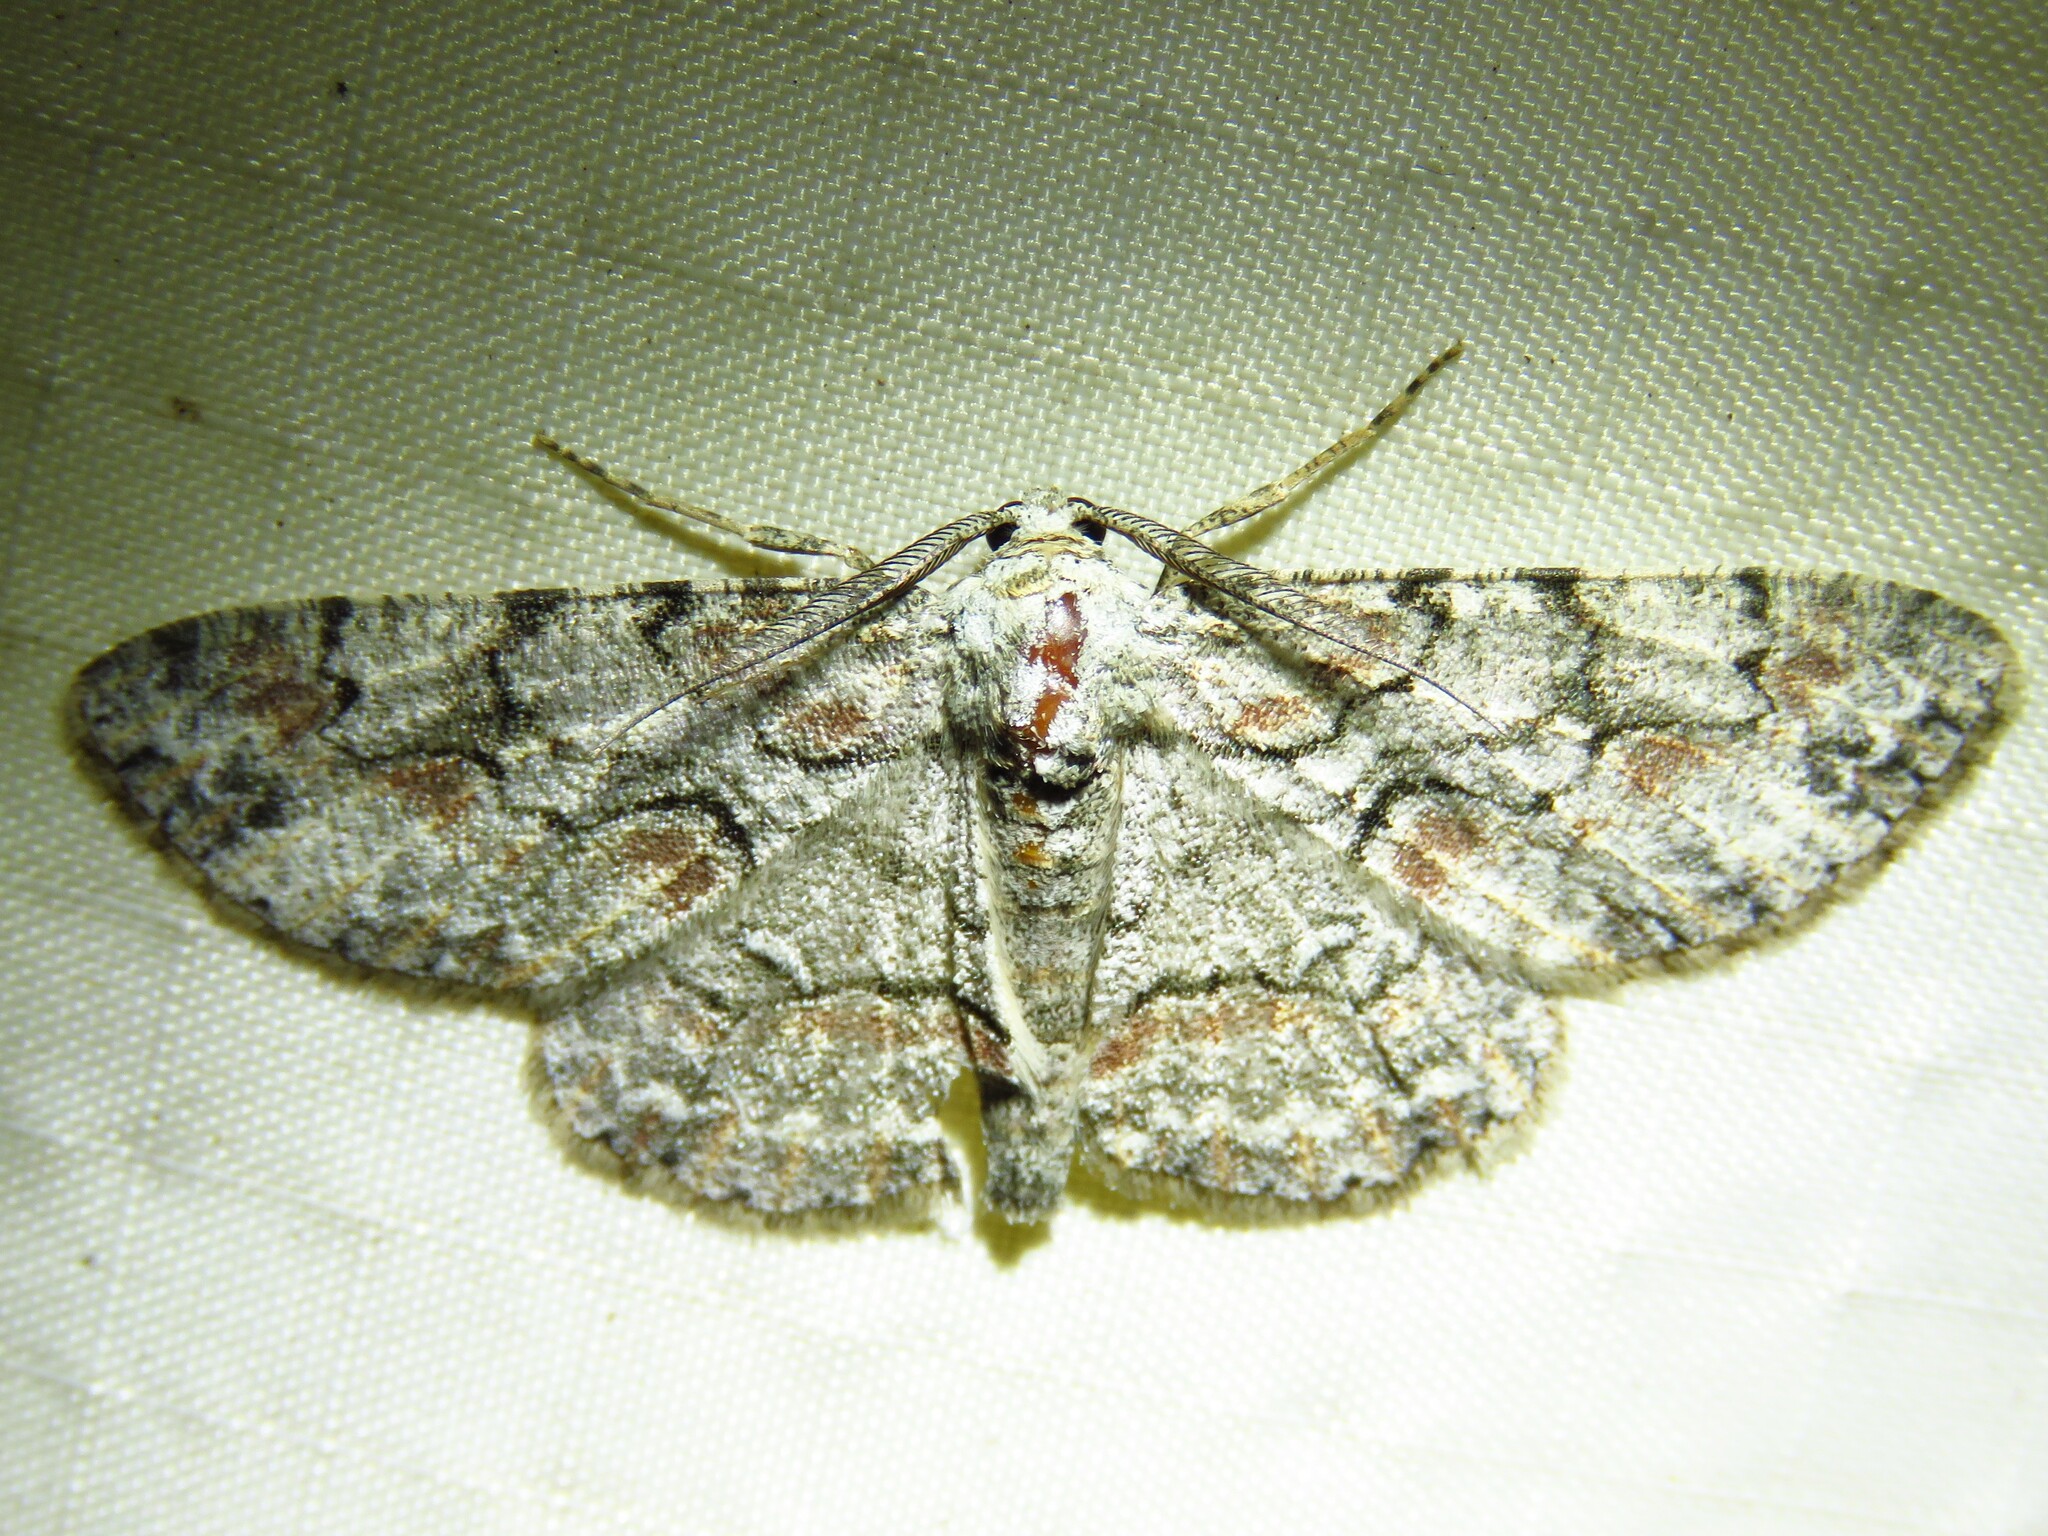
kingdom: Animalia
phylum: Arthropoda
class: Insecta
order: Lepidoptera
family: Geometridae
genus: Iridopsis
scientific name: Iridopsis defectaria
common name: Brown-shaded gray
